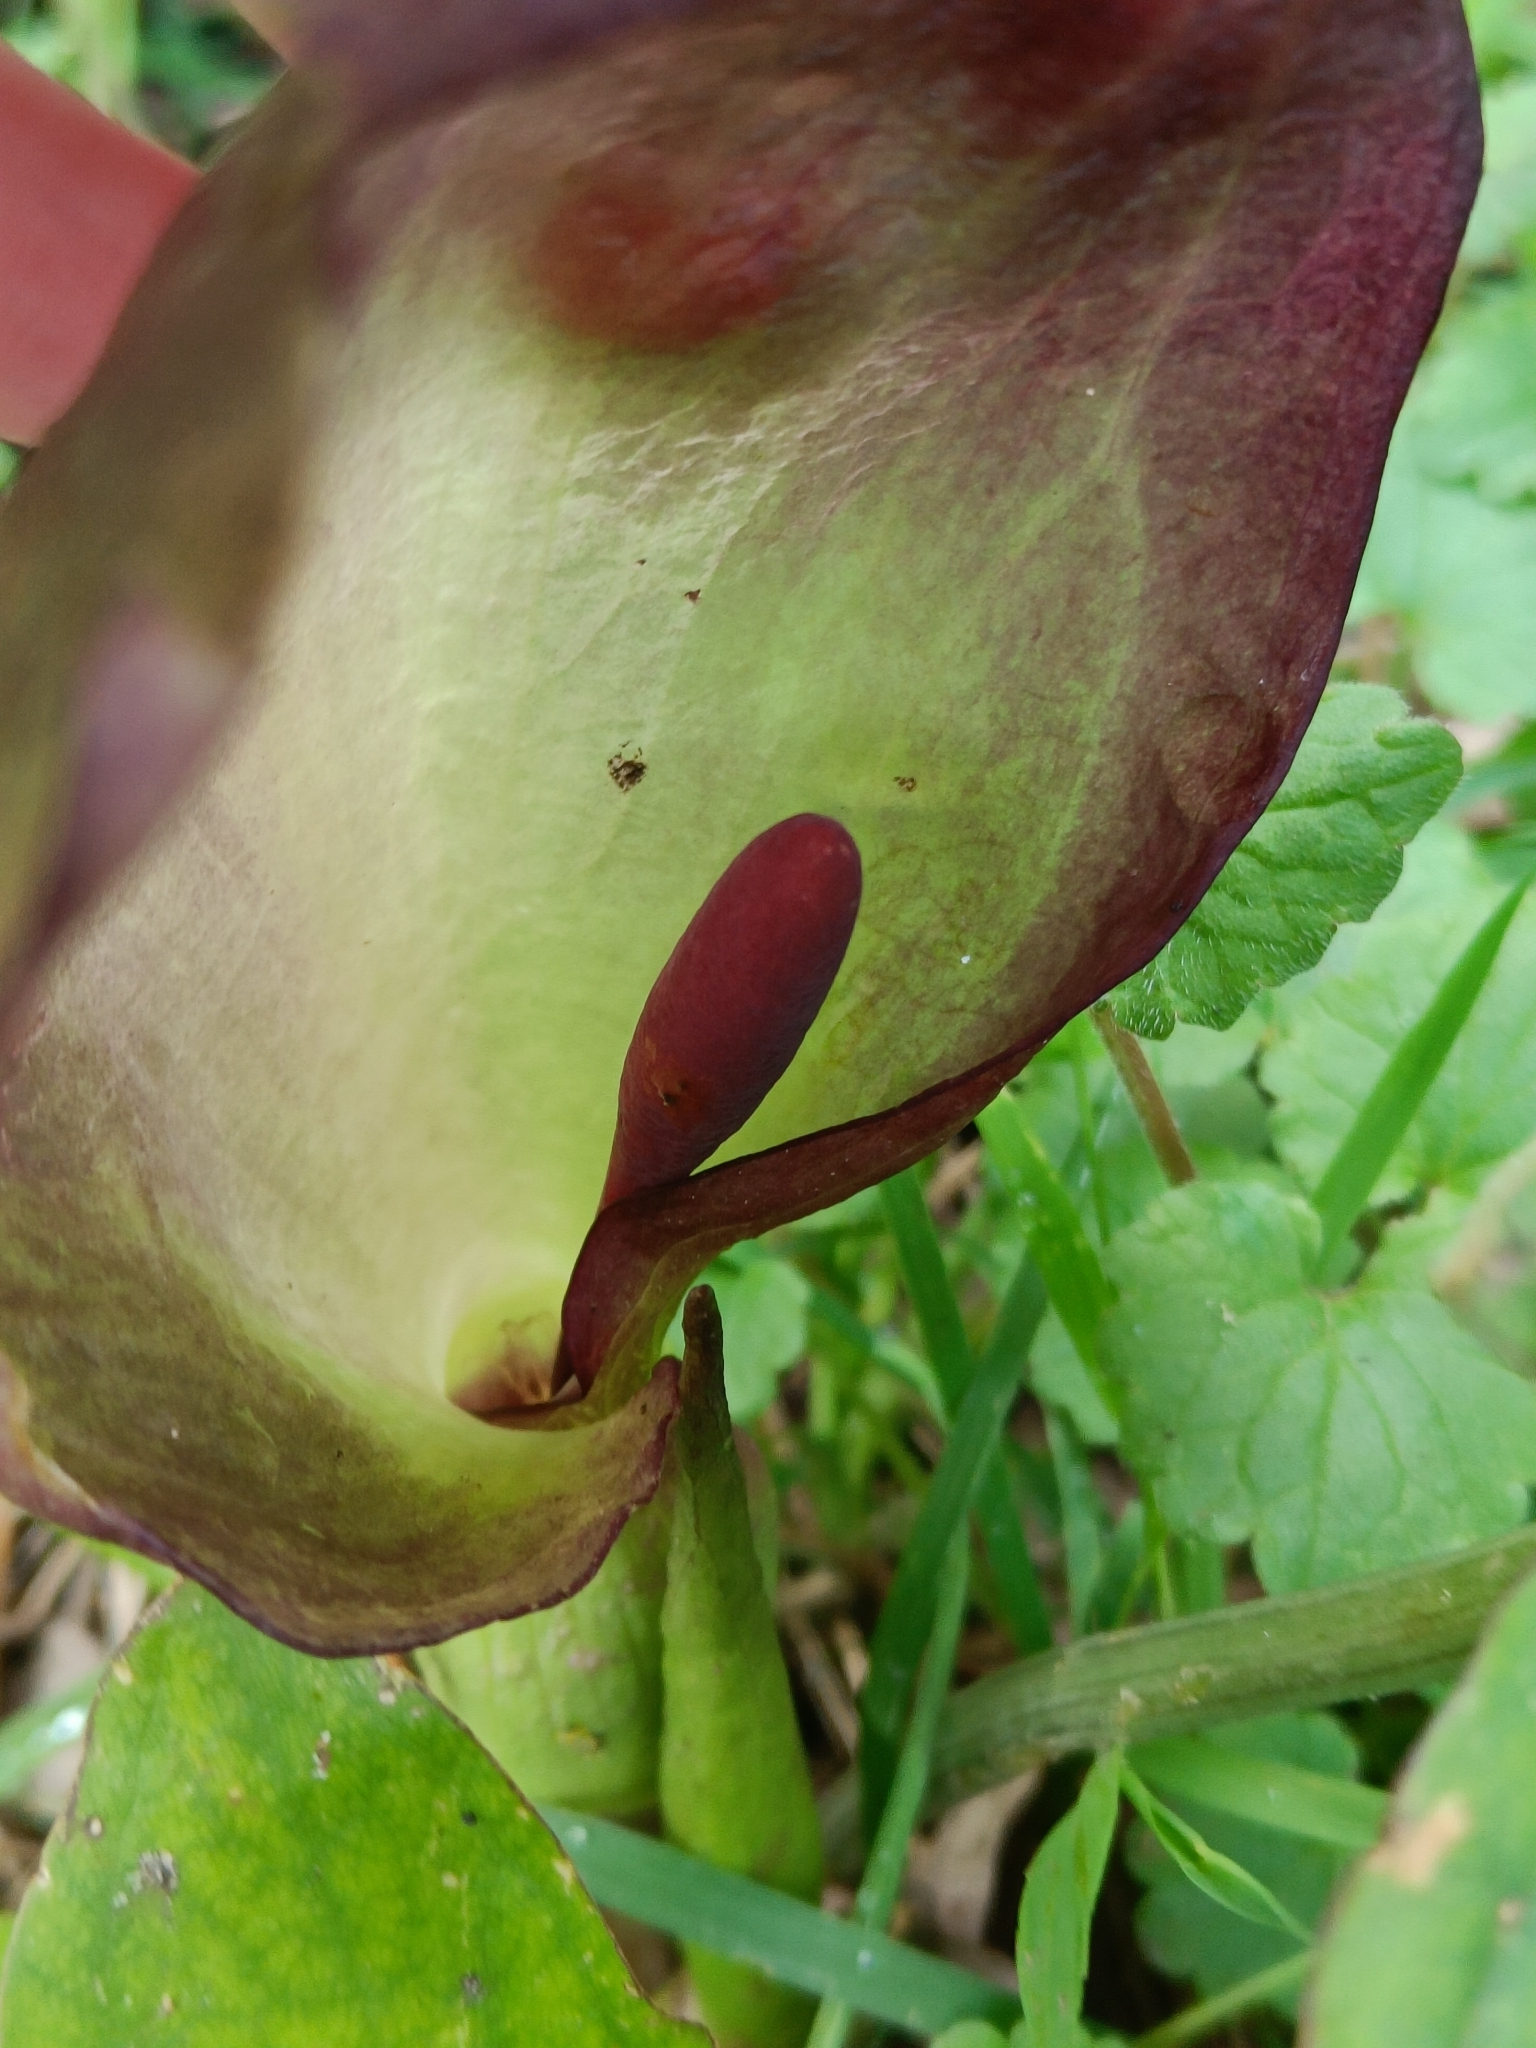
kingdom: Plantae
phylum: Tracheophyta
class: Liliopsida
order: Alismatales
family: Araceae
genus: Arum
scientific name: Arum maculatum
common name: Lords-and-ladies
